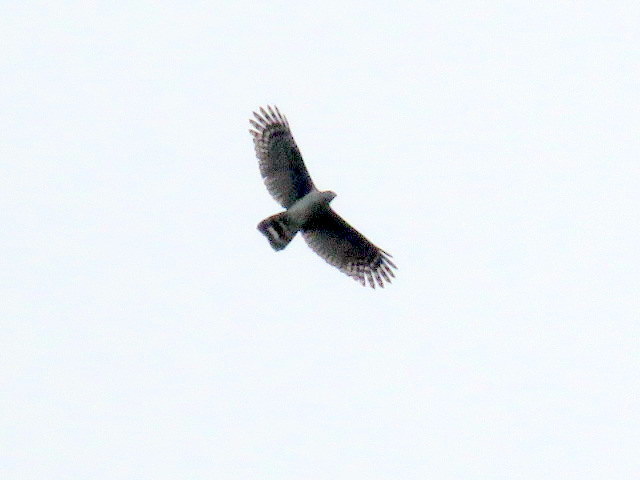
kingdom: Animalia
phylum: Chordata
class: Aves
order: Accipitriformes
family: Accipitridae
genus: Leptodon
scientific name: Leptodon cayanensis
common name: Gray-headed kite
